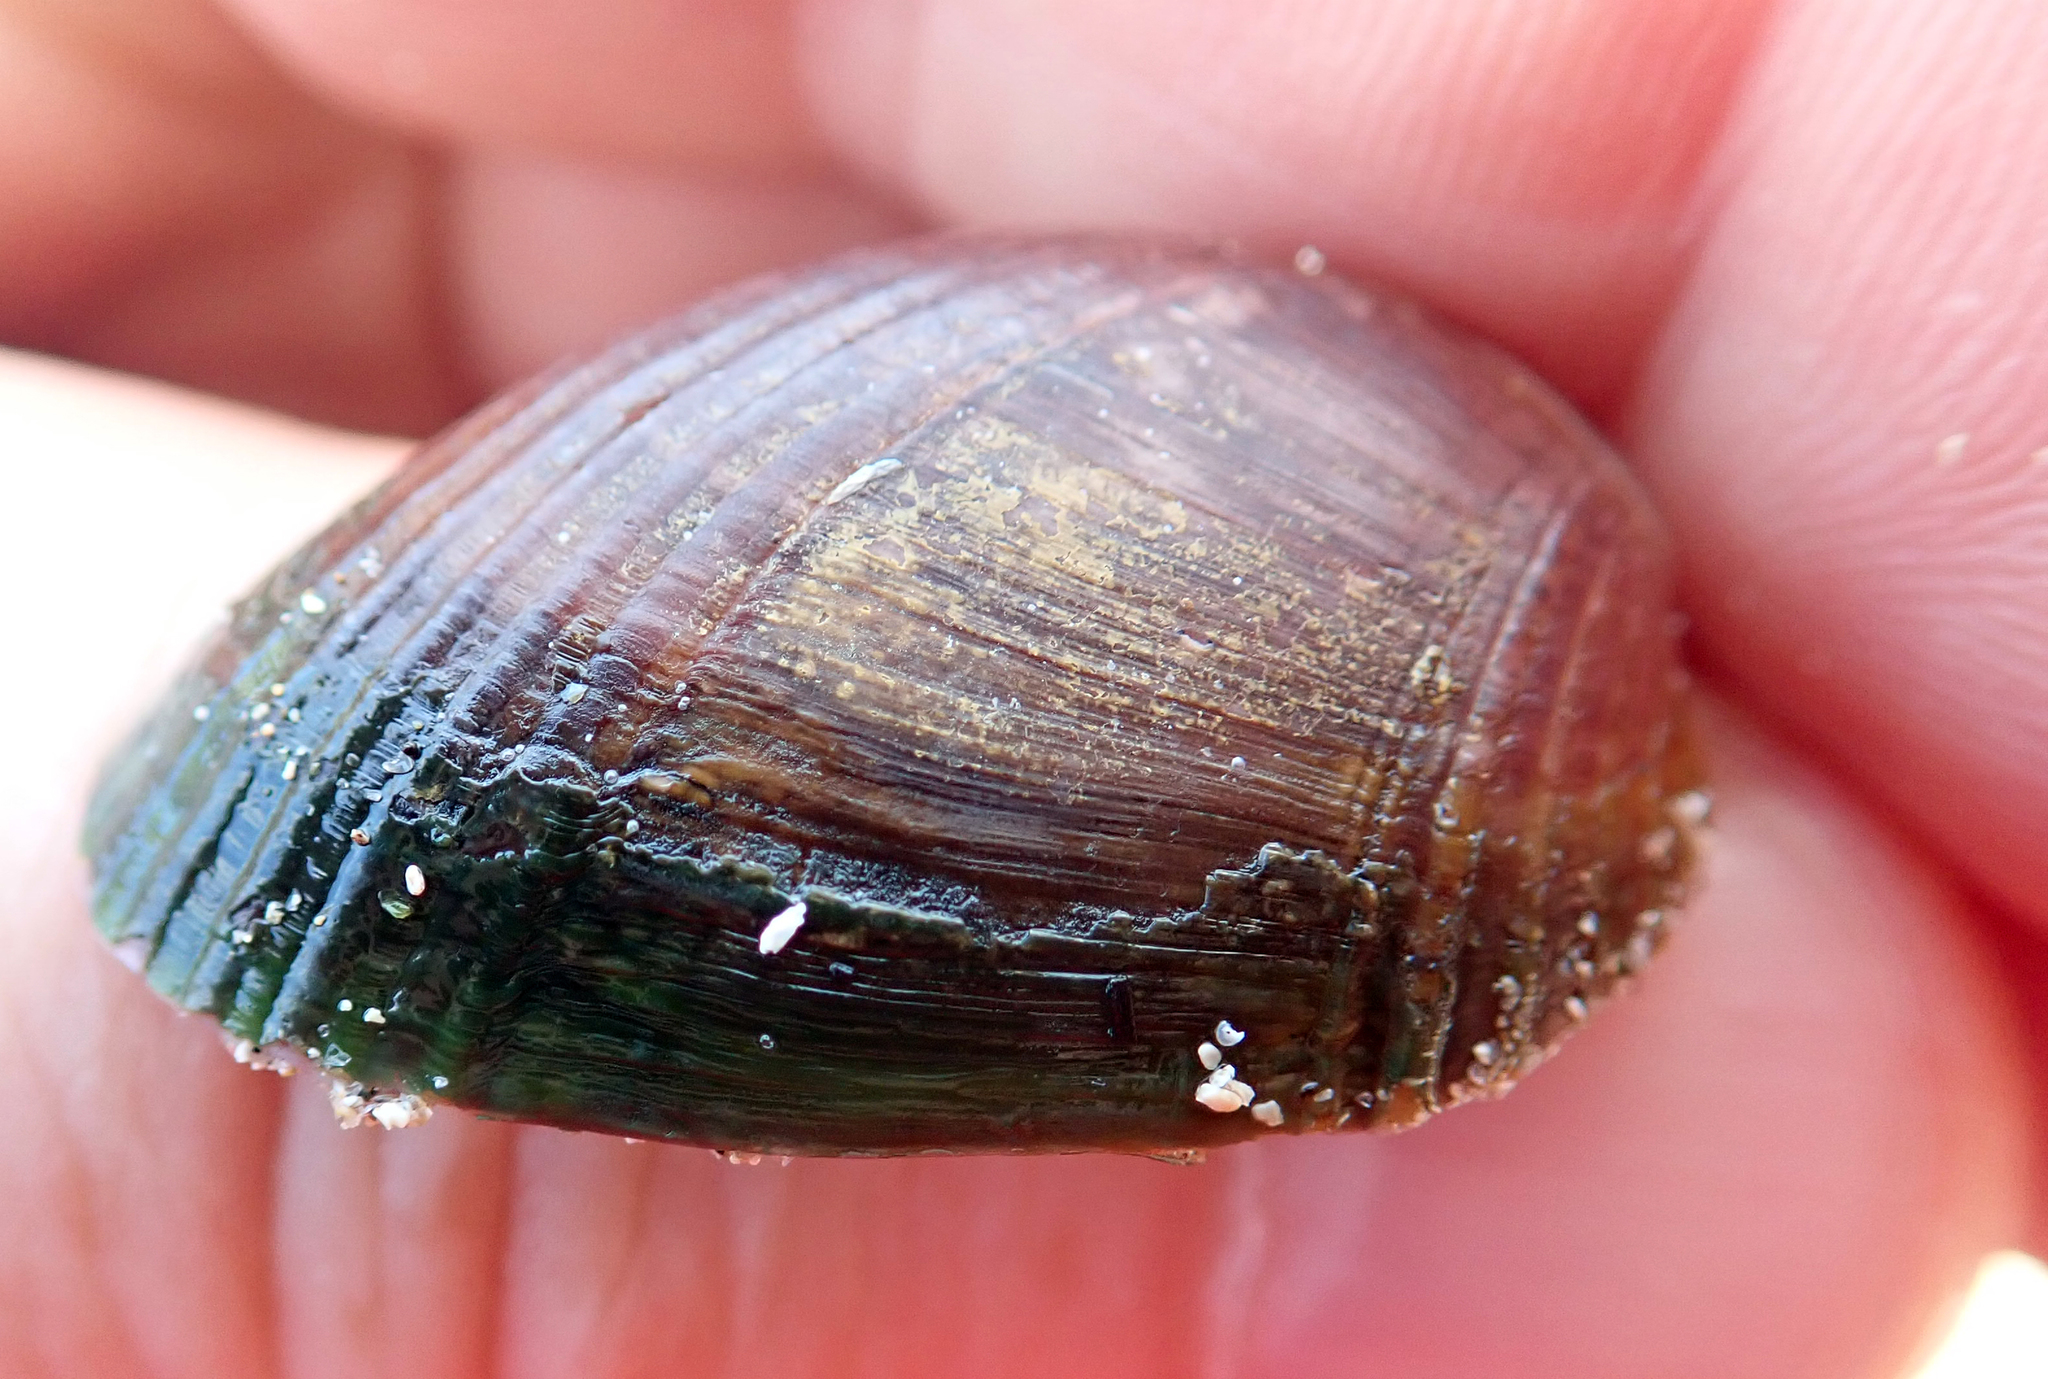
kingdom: Animalia
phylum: Mollusca
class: Bivalvia
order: Mytilida
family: Mytilidae
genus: Musculus
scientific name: Musculus impactus
